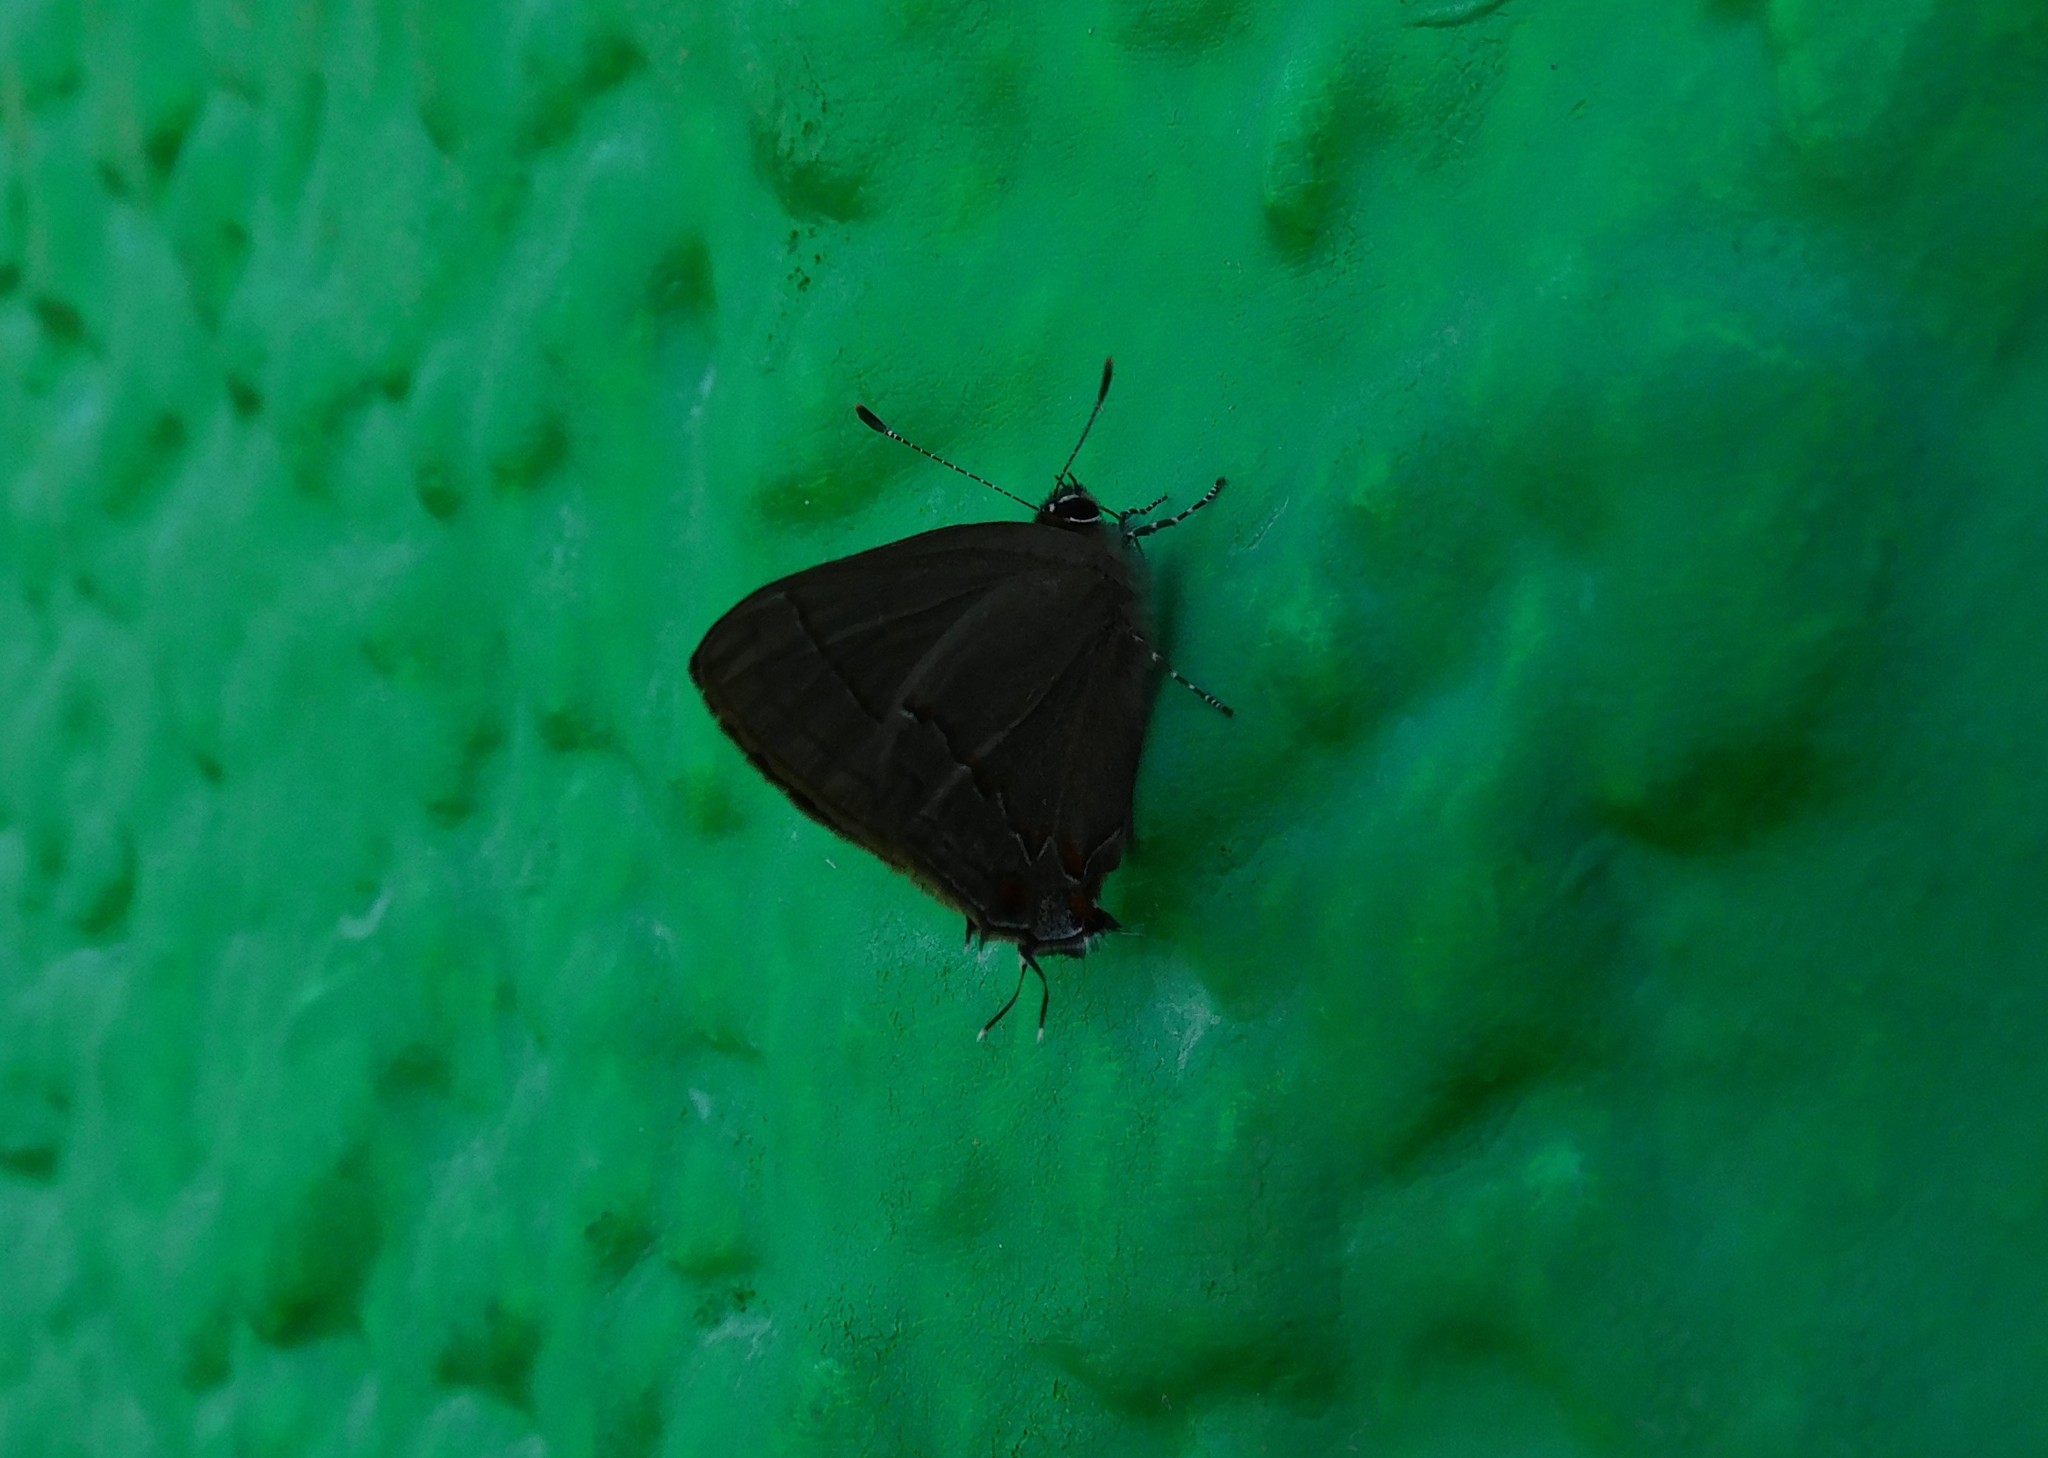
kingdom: Animalia
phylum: Arthropoda
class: Insecta
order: Lepidoptera
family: Lycaenidae
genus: Ziegleria
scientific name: Ziegleria hesperitis
